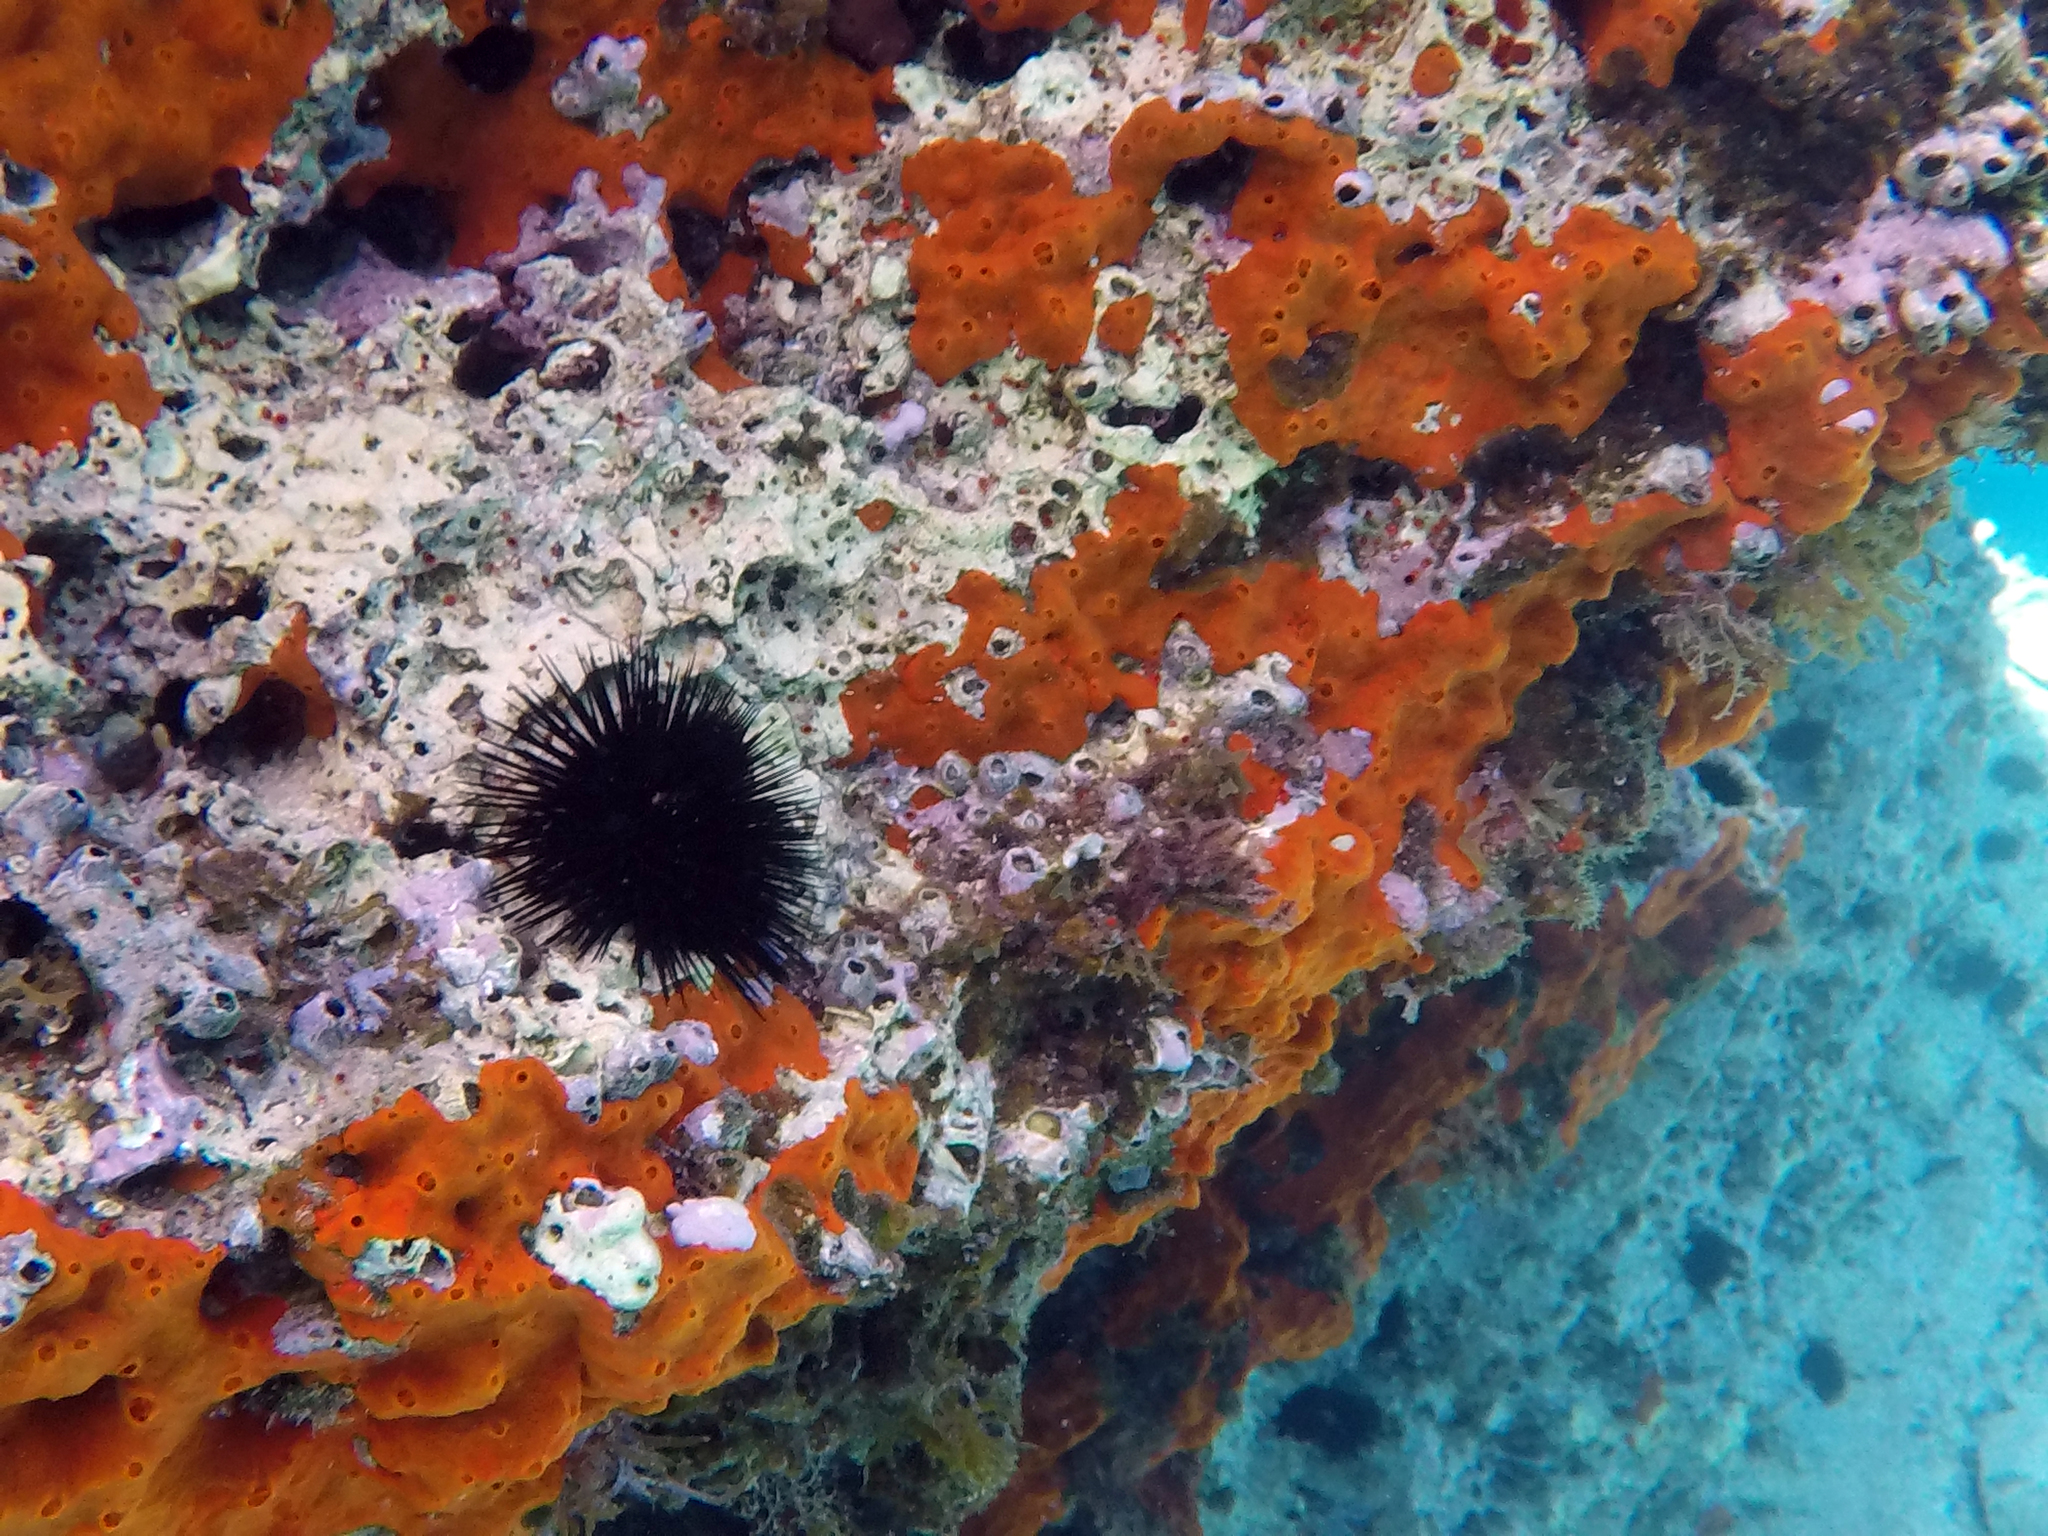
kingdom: Animalia
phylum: Porifera
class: Demospongiae
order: Poecilosclerida
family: Crambeidae
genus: Crambe
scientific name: Crambe crambe
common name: Orange-red encrusting sponge
